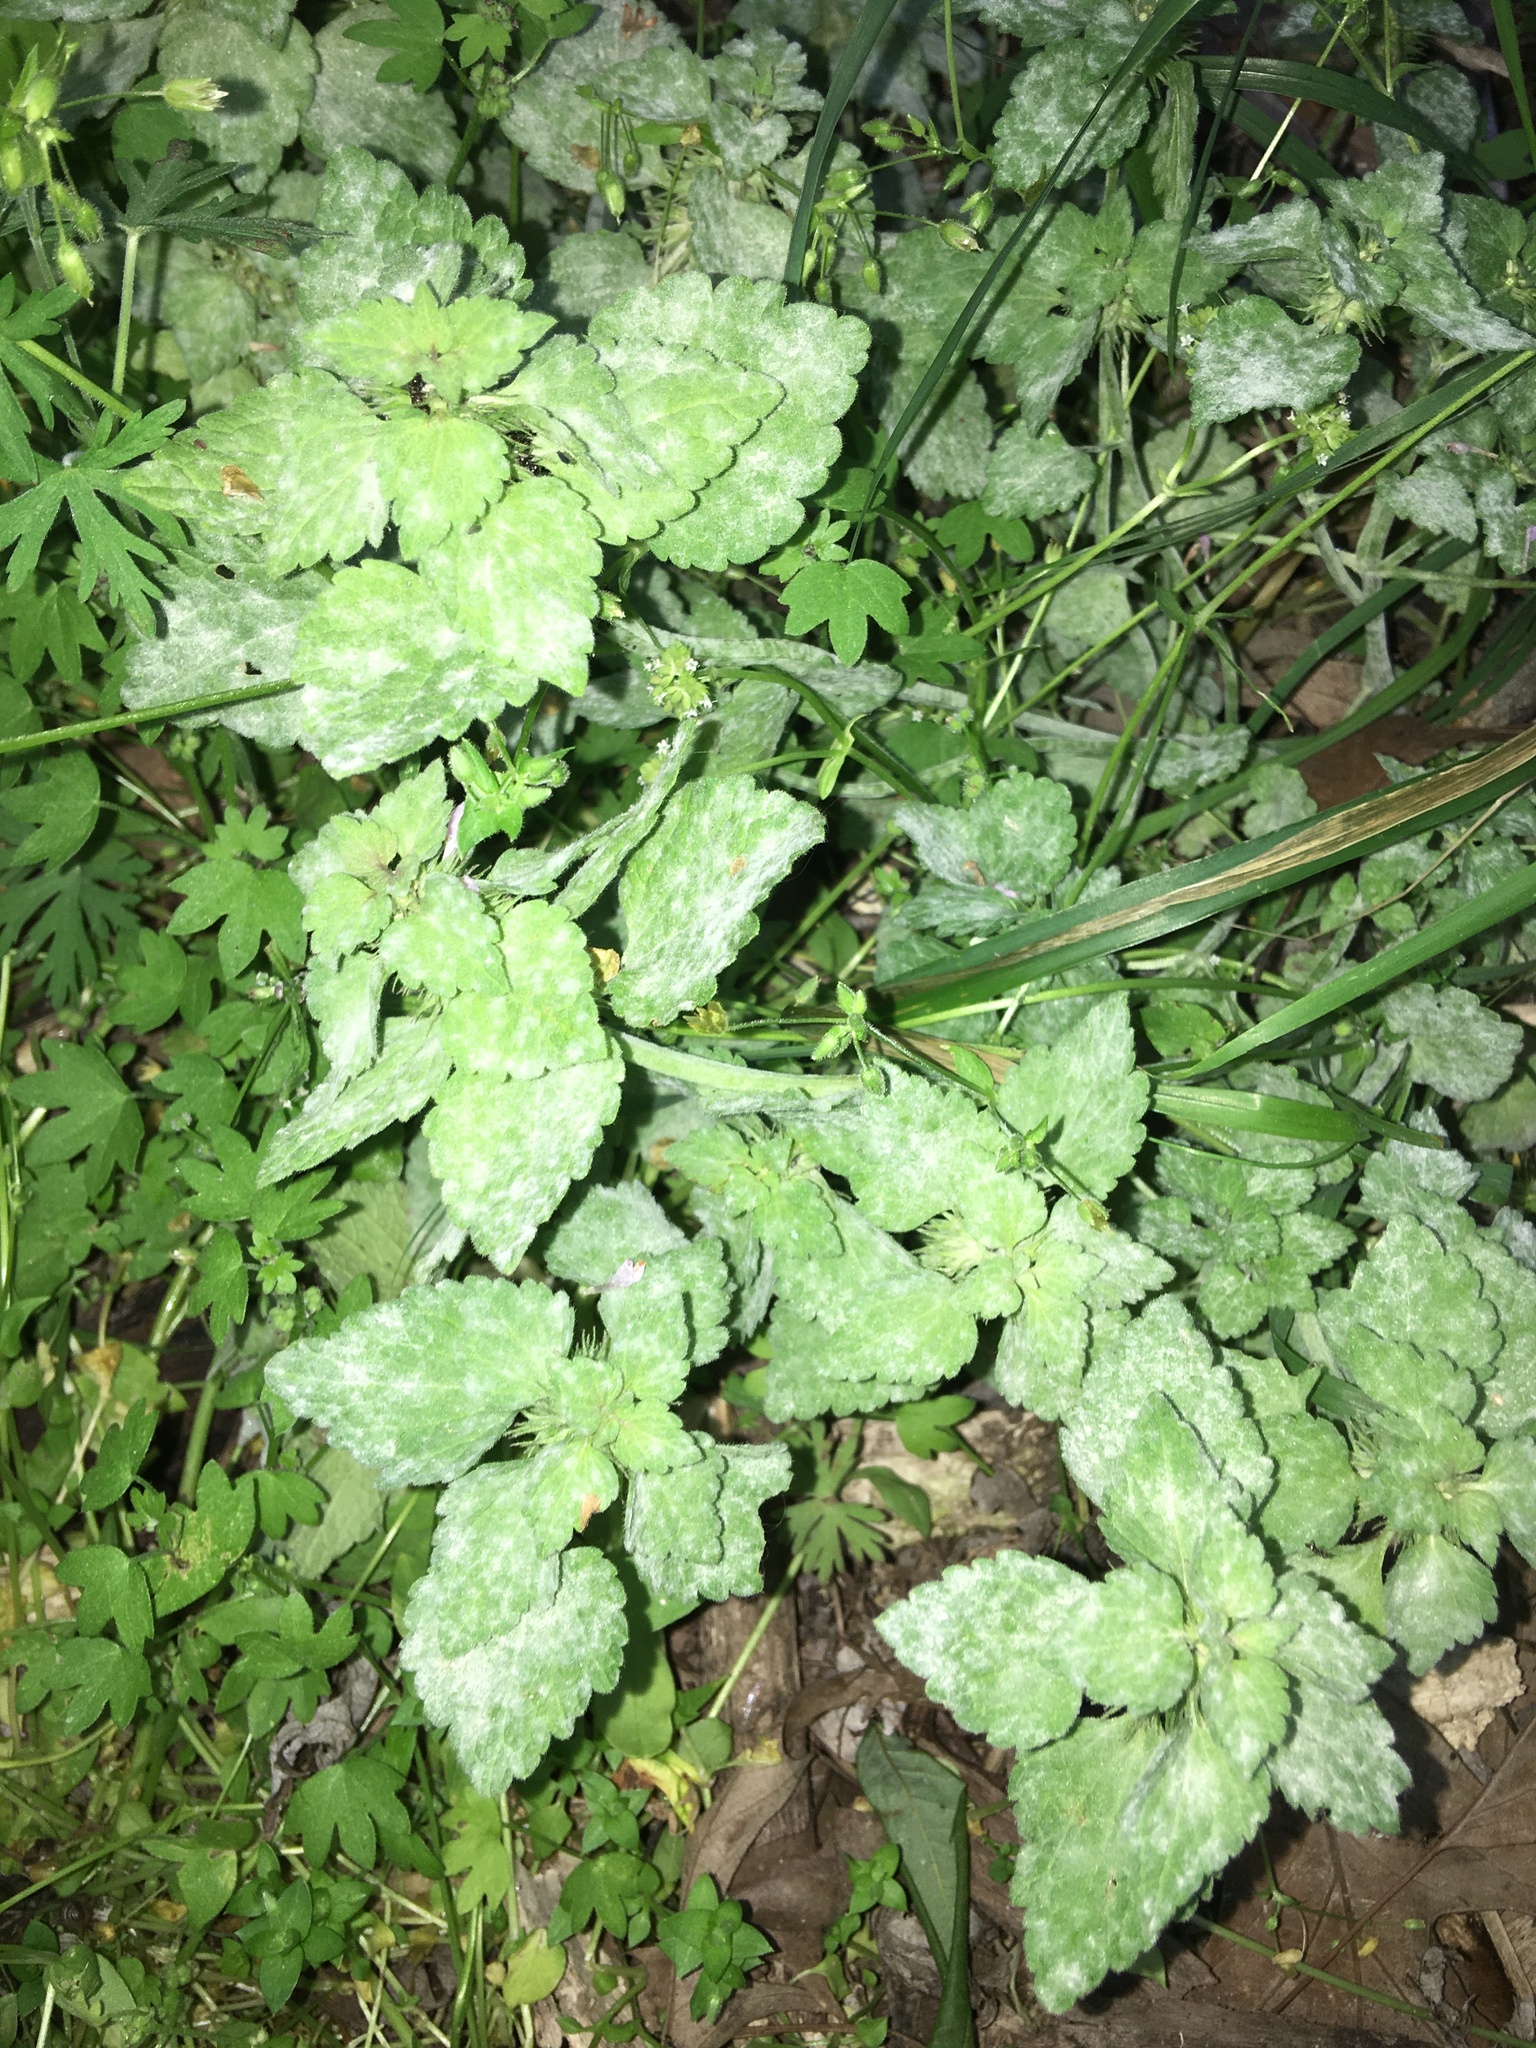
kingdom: Plantae
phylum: Tracheophyta
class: Magnoliopsida
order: Lamiales
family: Lamiaceae
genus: Lamium
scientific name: Lamium purpureum
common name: Red dead-nettle
